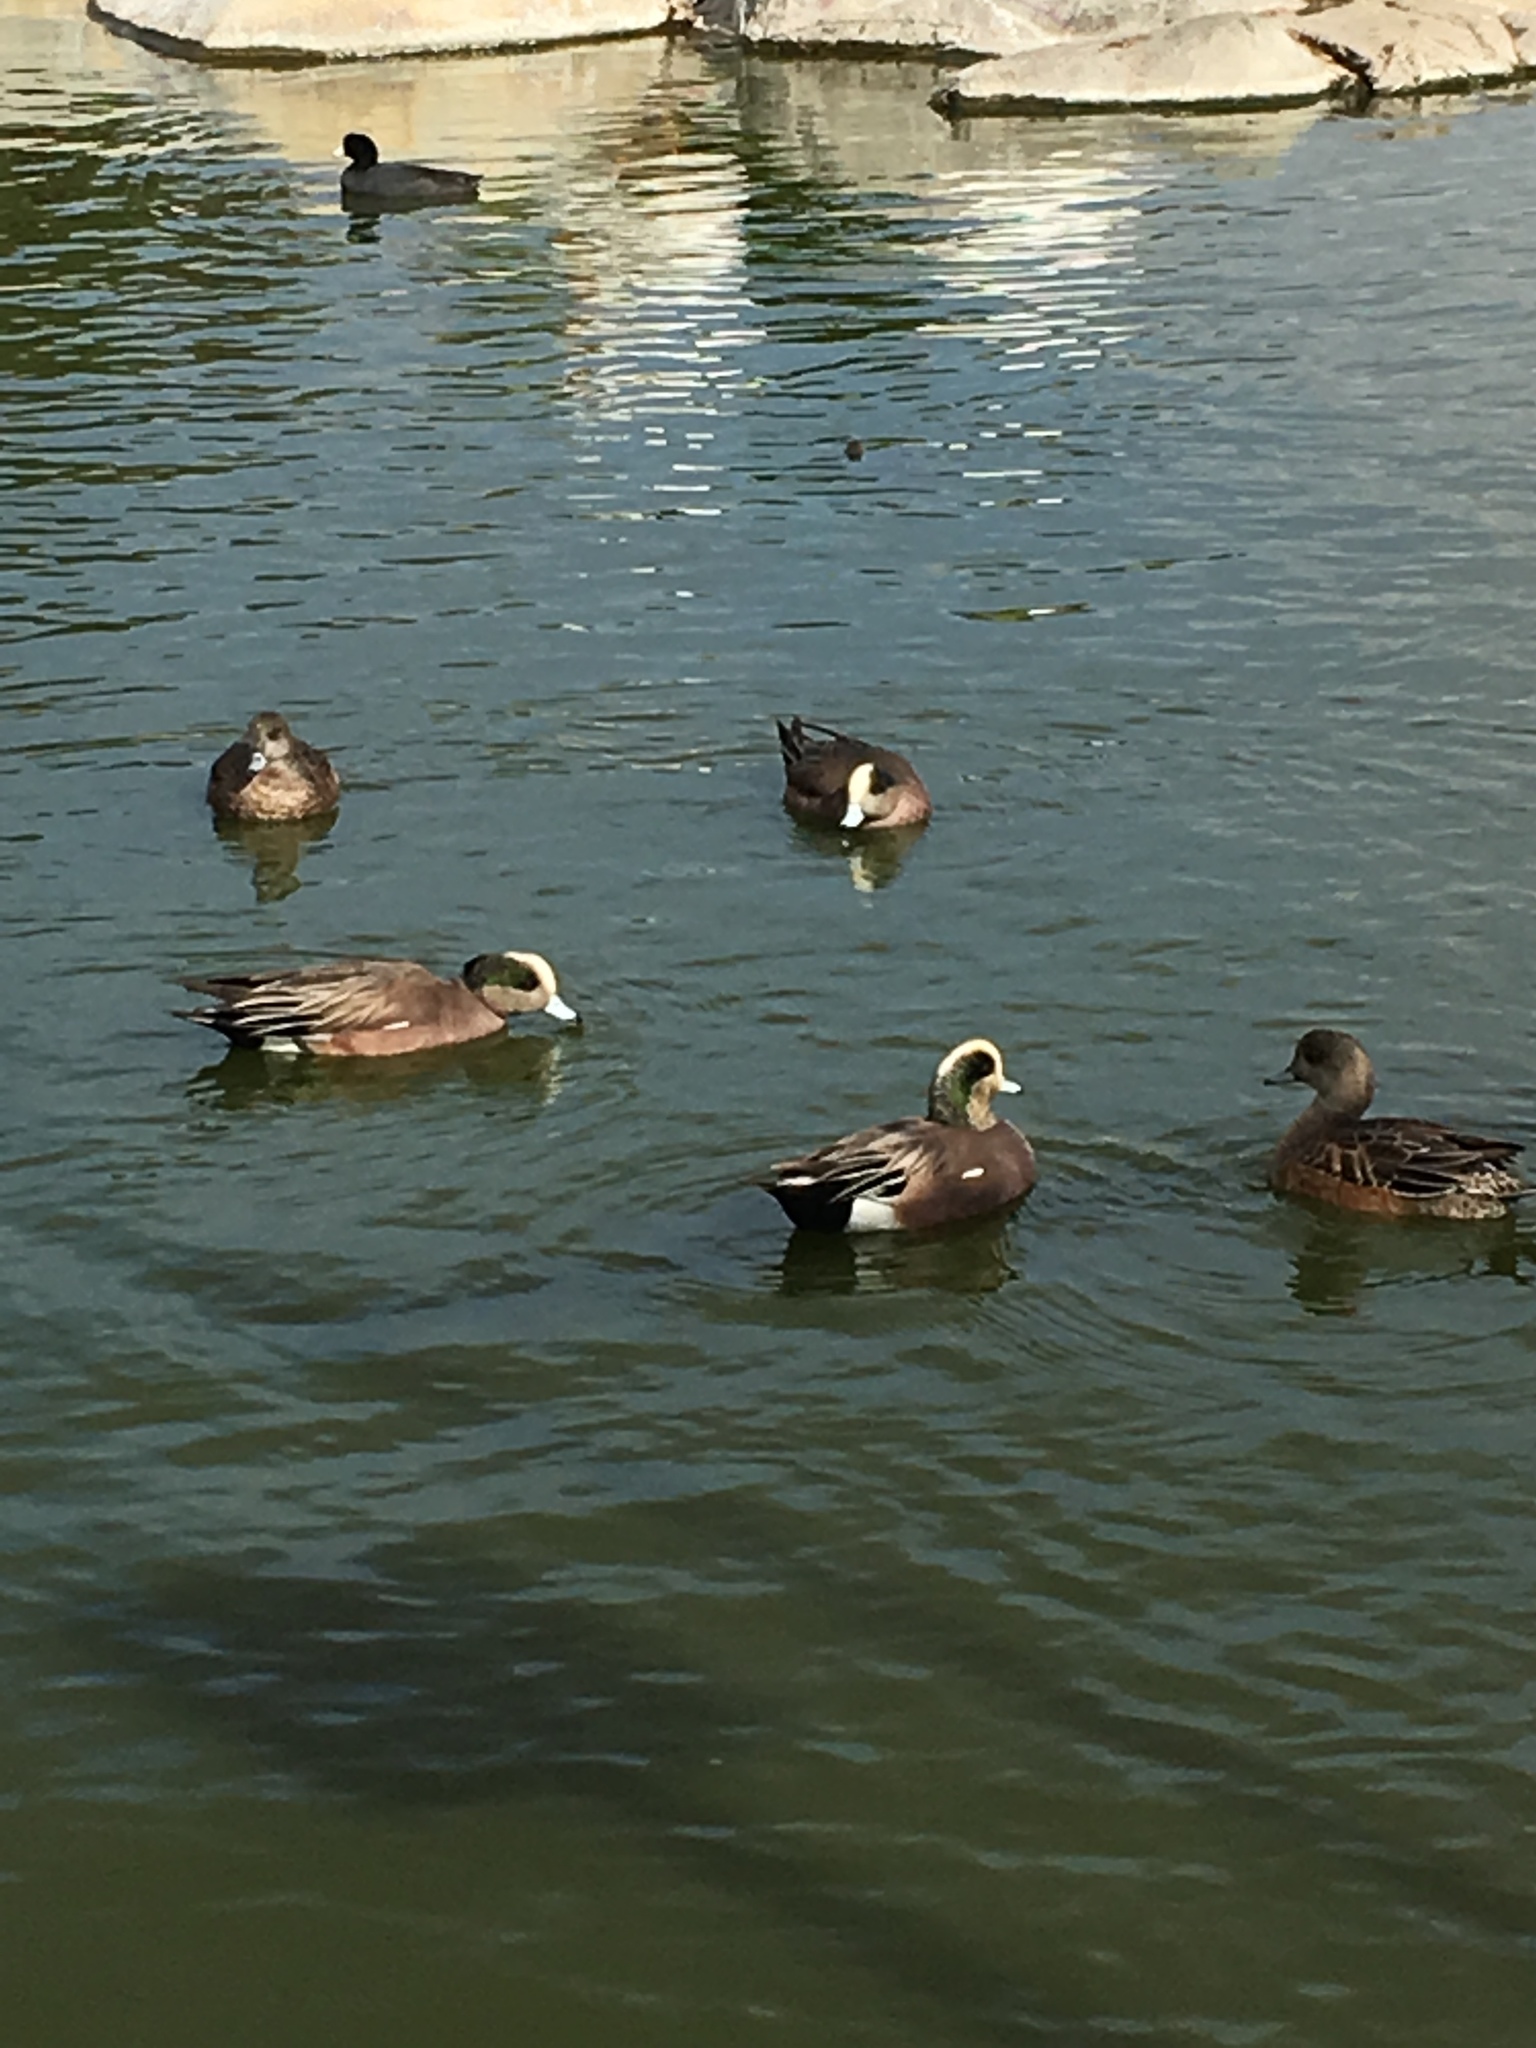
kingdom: Animalia
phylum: Chordata
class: Aves
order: Anseriformes
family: Anatidae
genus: Mareca
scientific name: Mareca americana
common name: American wigeon
